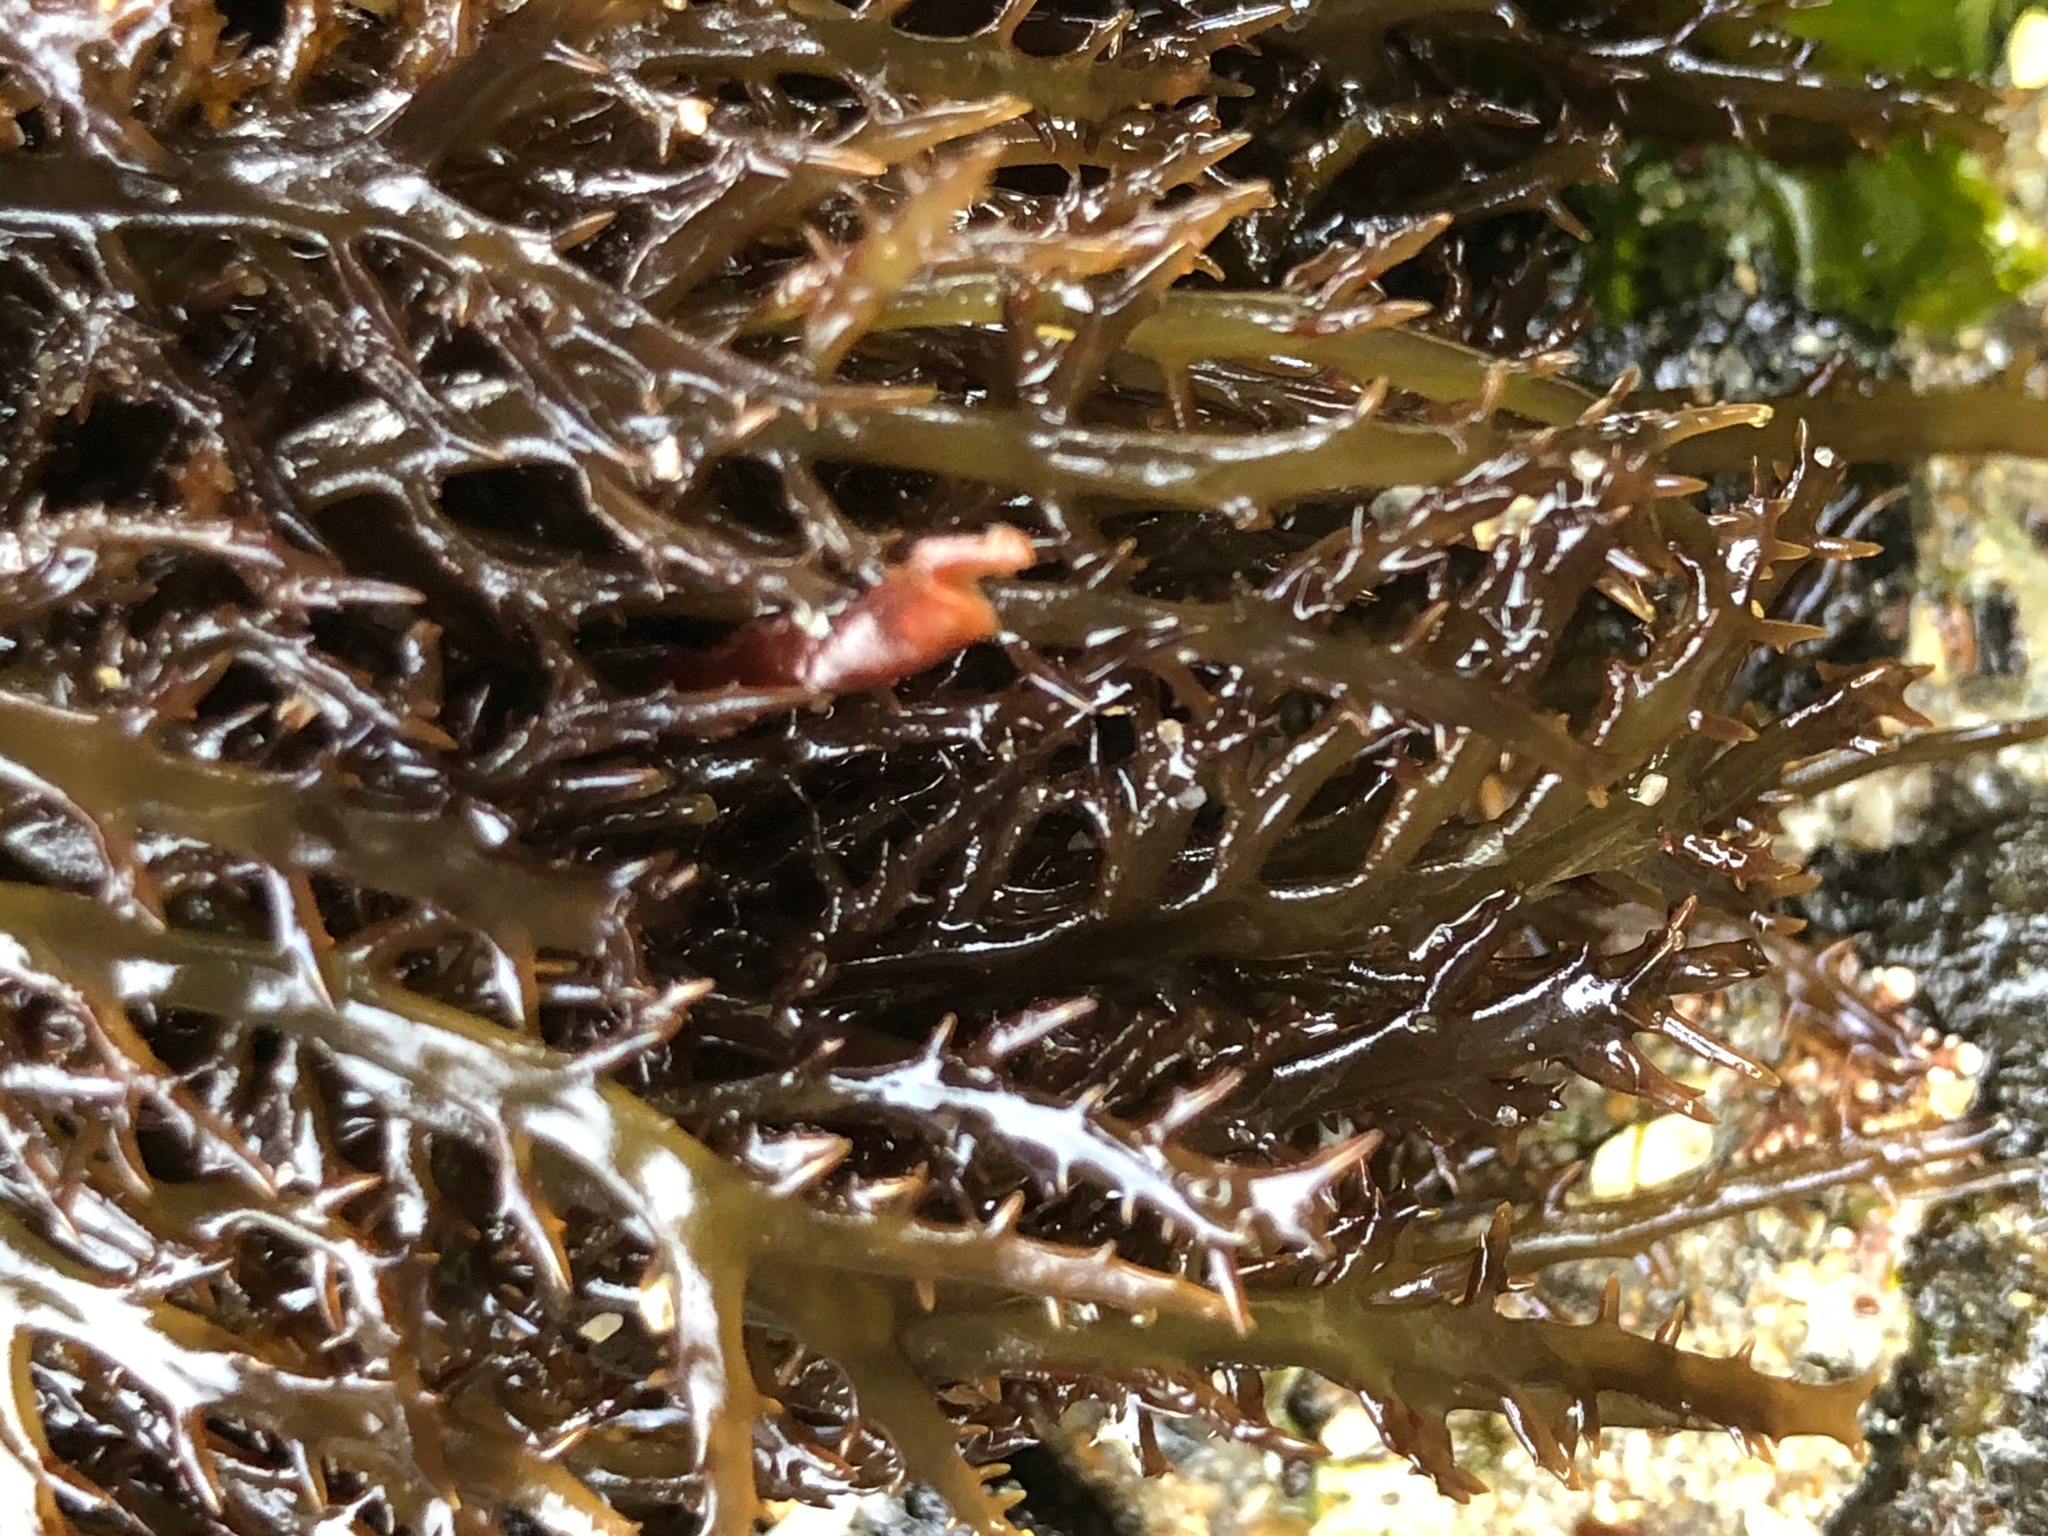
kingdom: Plantae
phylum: Rhodophyta
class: Florideophyceae
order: Gigartinales
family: Gigartinaceae
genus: Chondracanthus
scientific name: Chondracanthus canaliculatus
